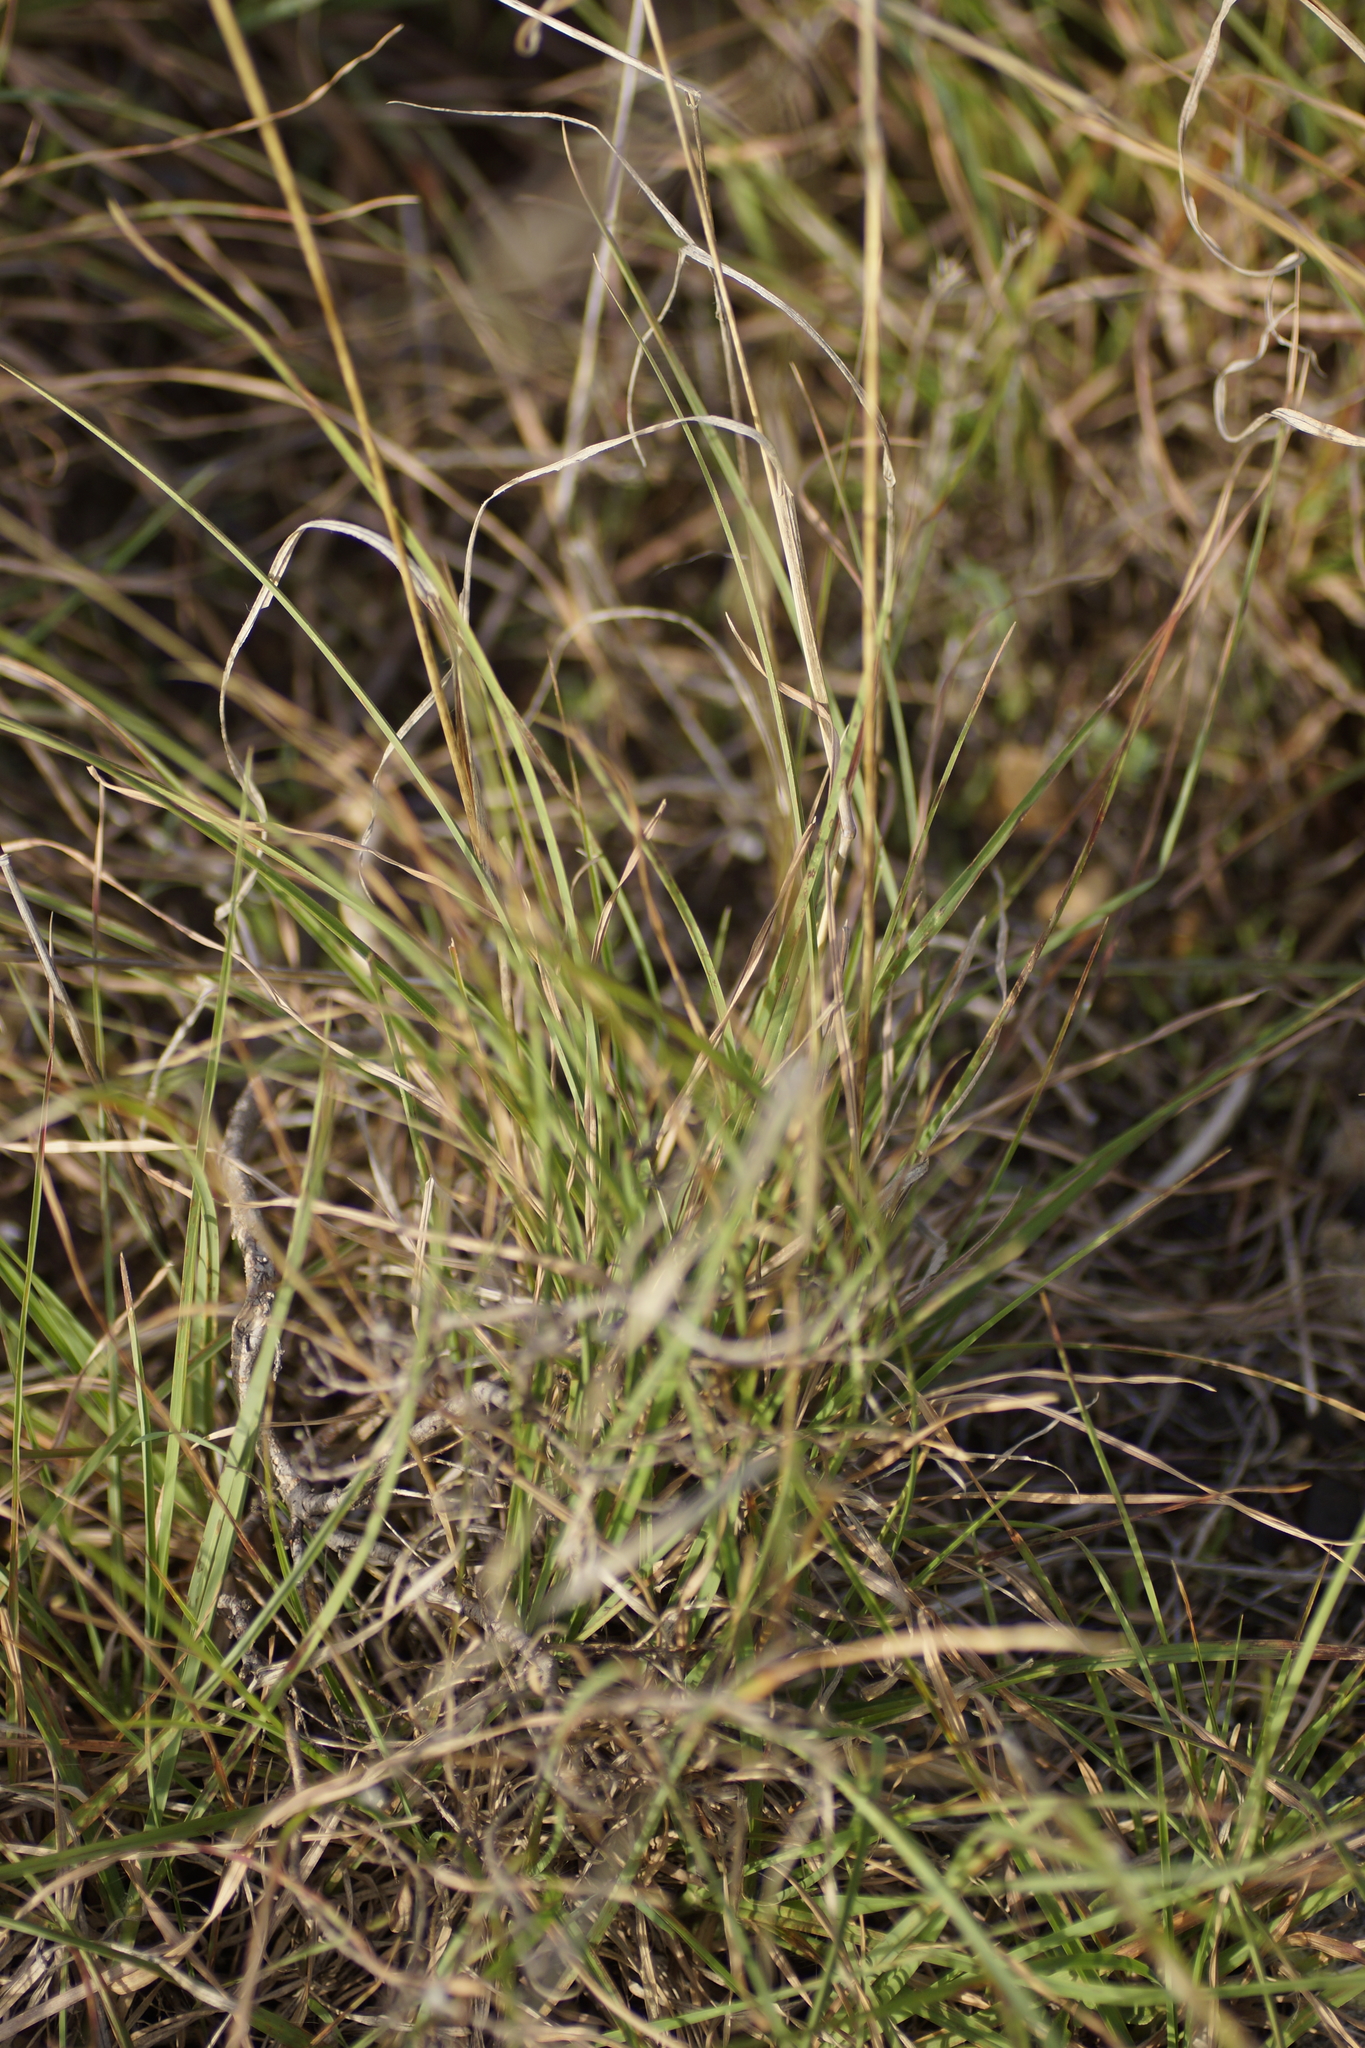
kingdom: Plantae
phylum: Tracheophyta
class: Liliopsida
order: Poales
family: Poaceae
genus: Themeda
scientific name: Themeda triandra
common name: Kangaroo grass
